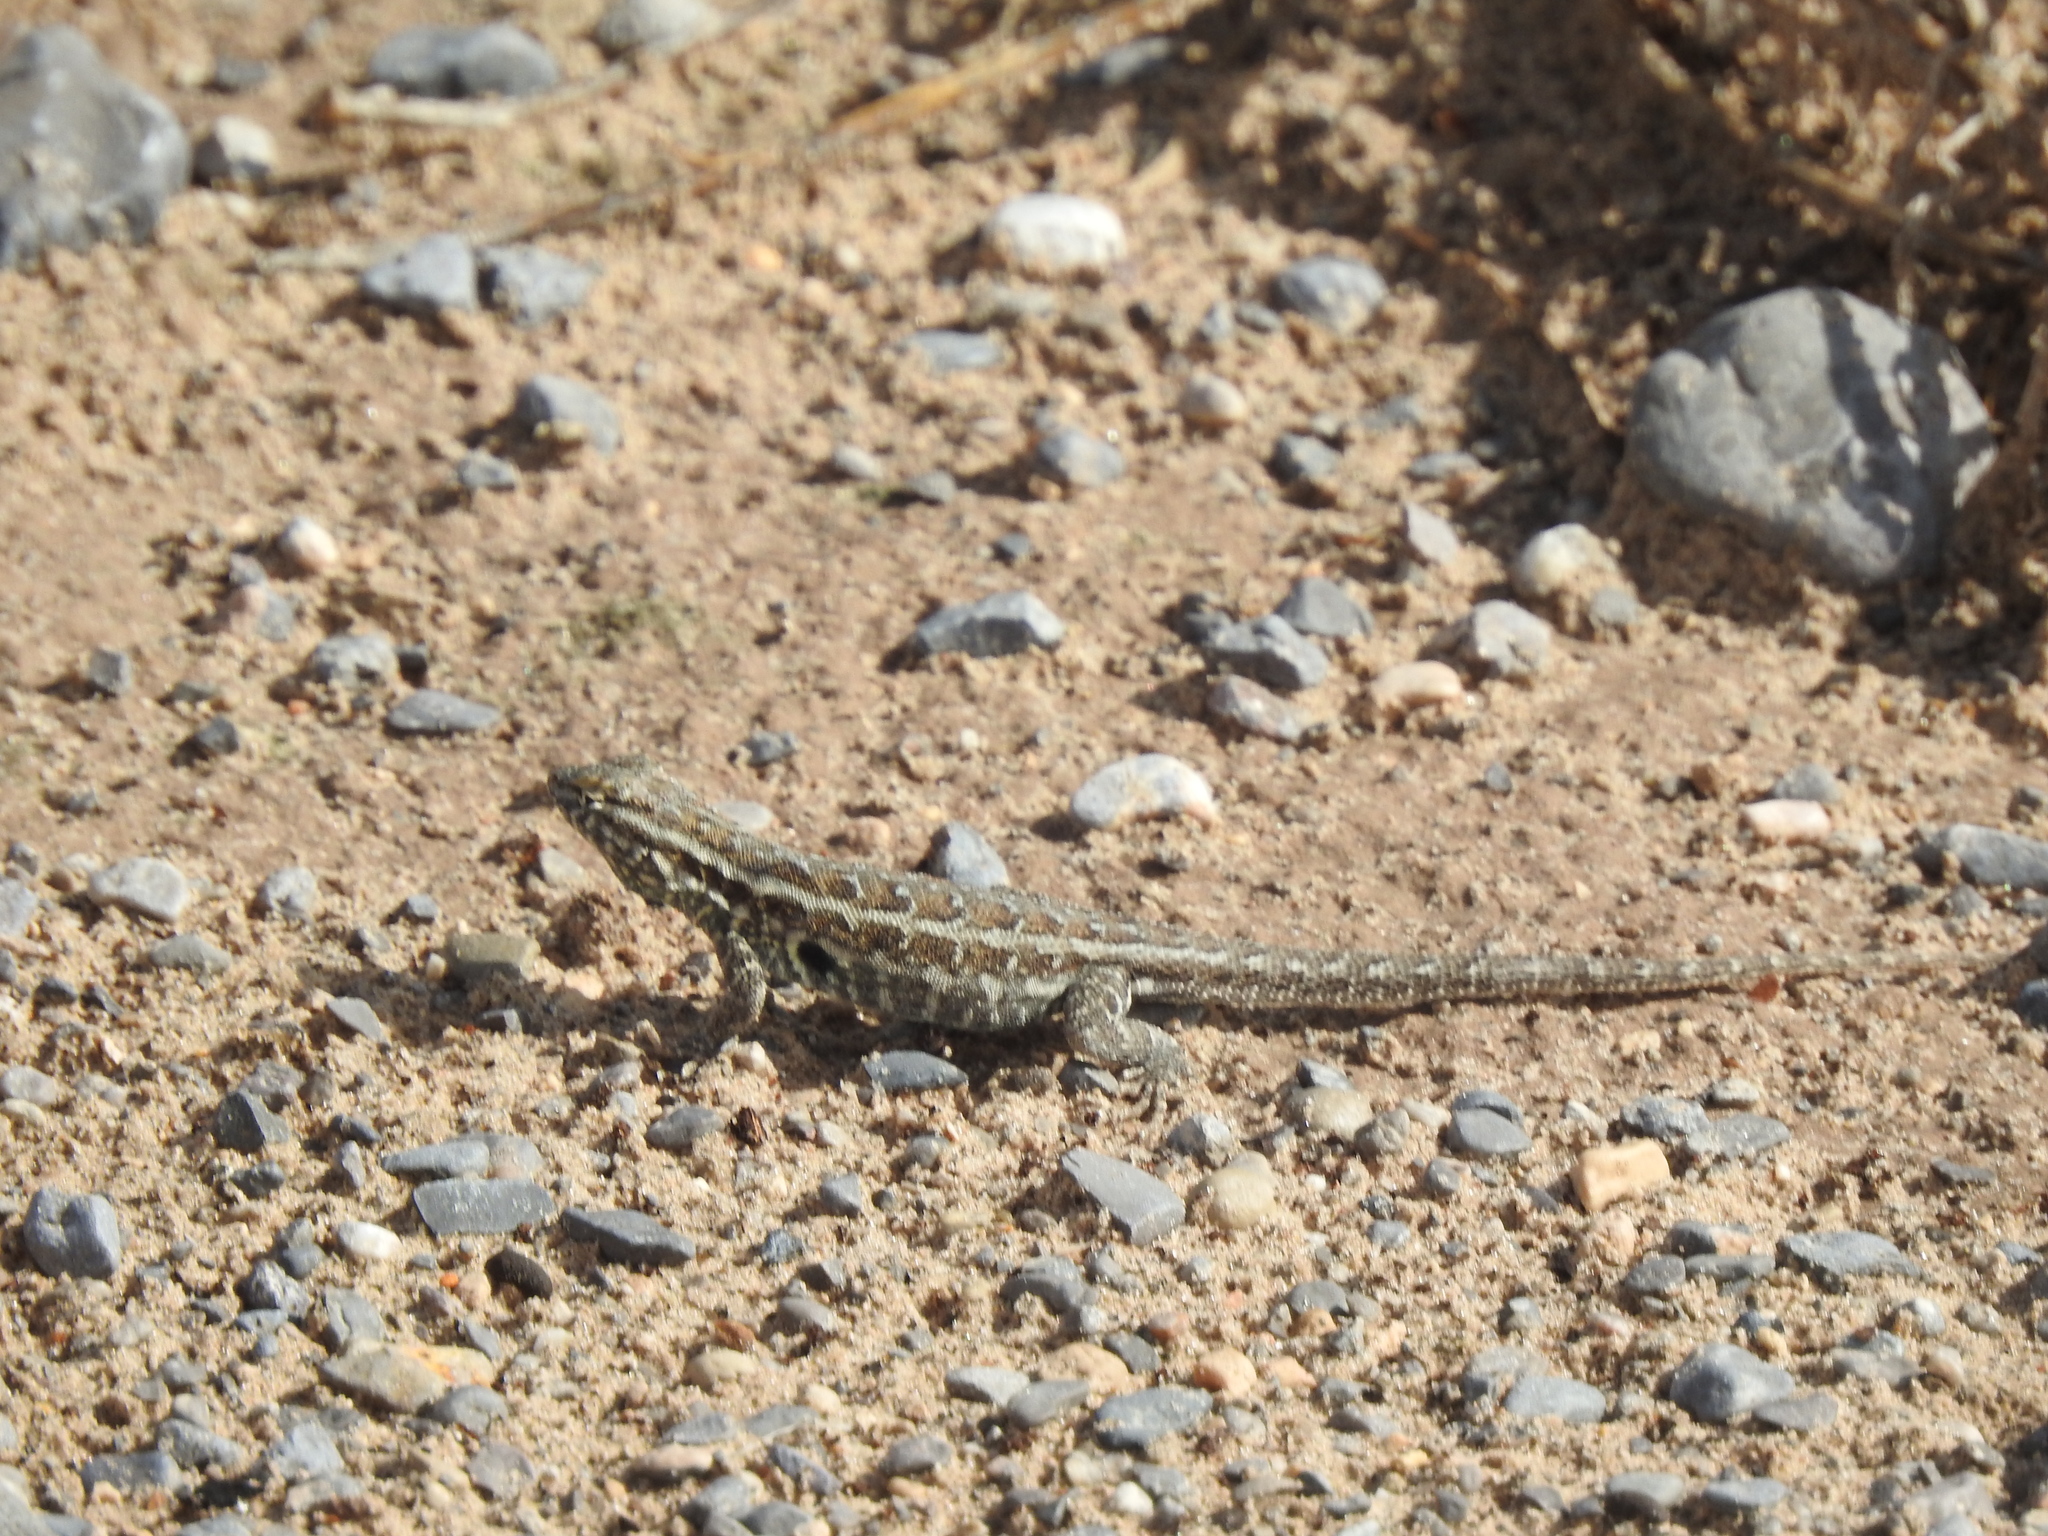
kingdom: Animalia
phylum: Chordata
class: Squamata
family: Phrynosomatidae
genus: Uta
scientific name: Uta stansburiana
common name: Side-blotched lizard
